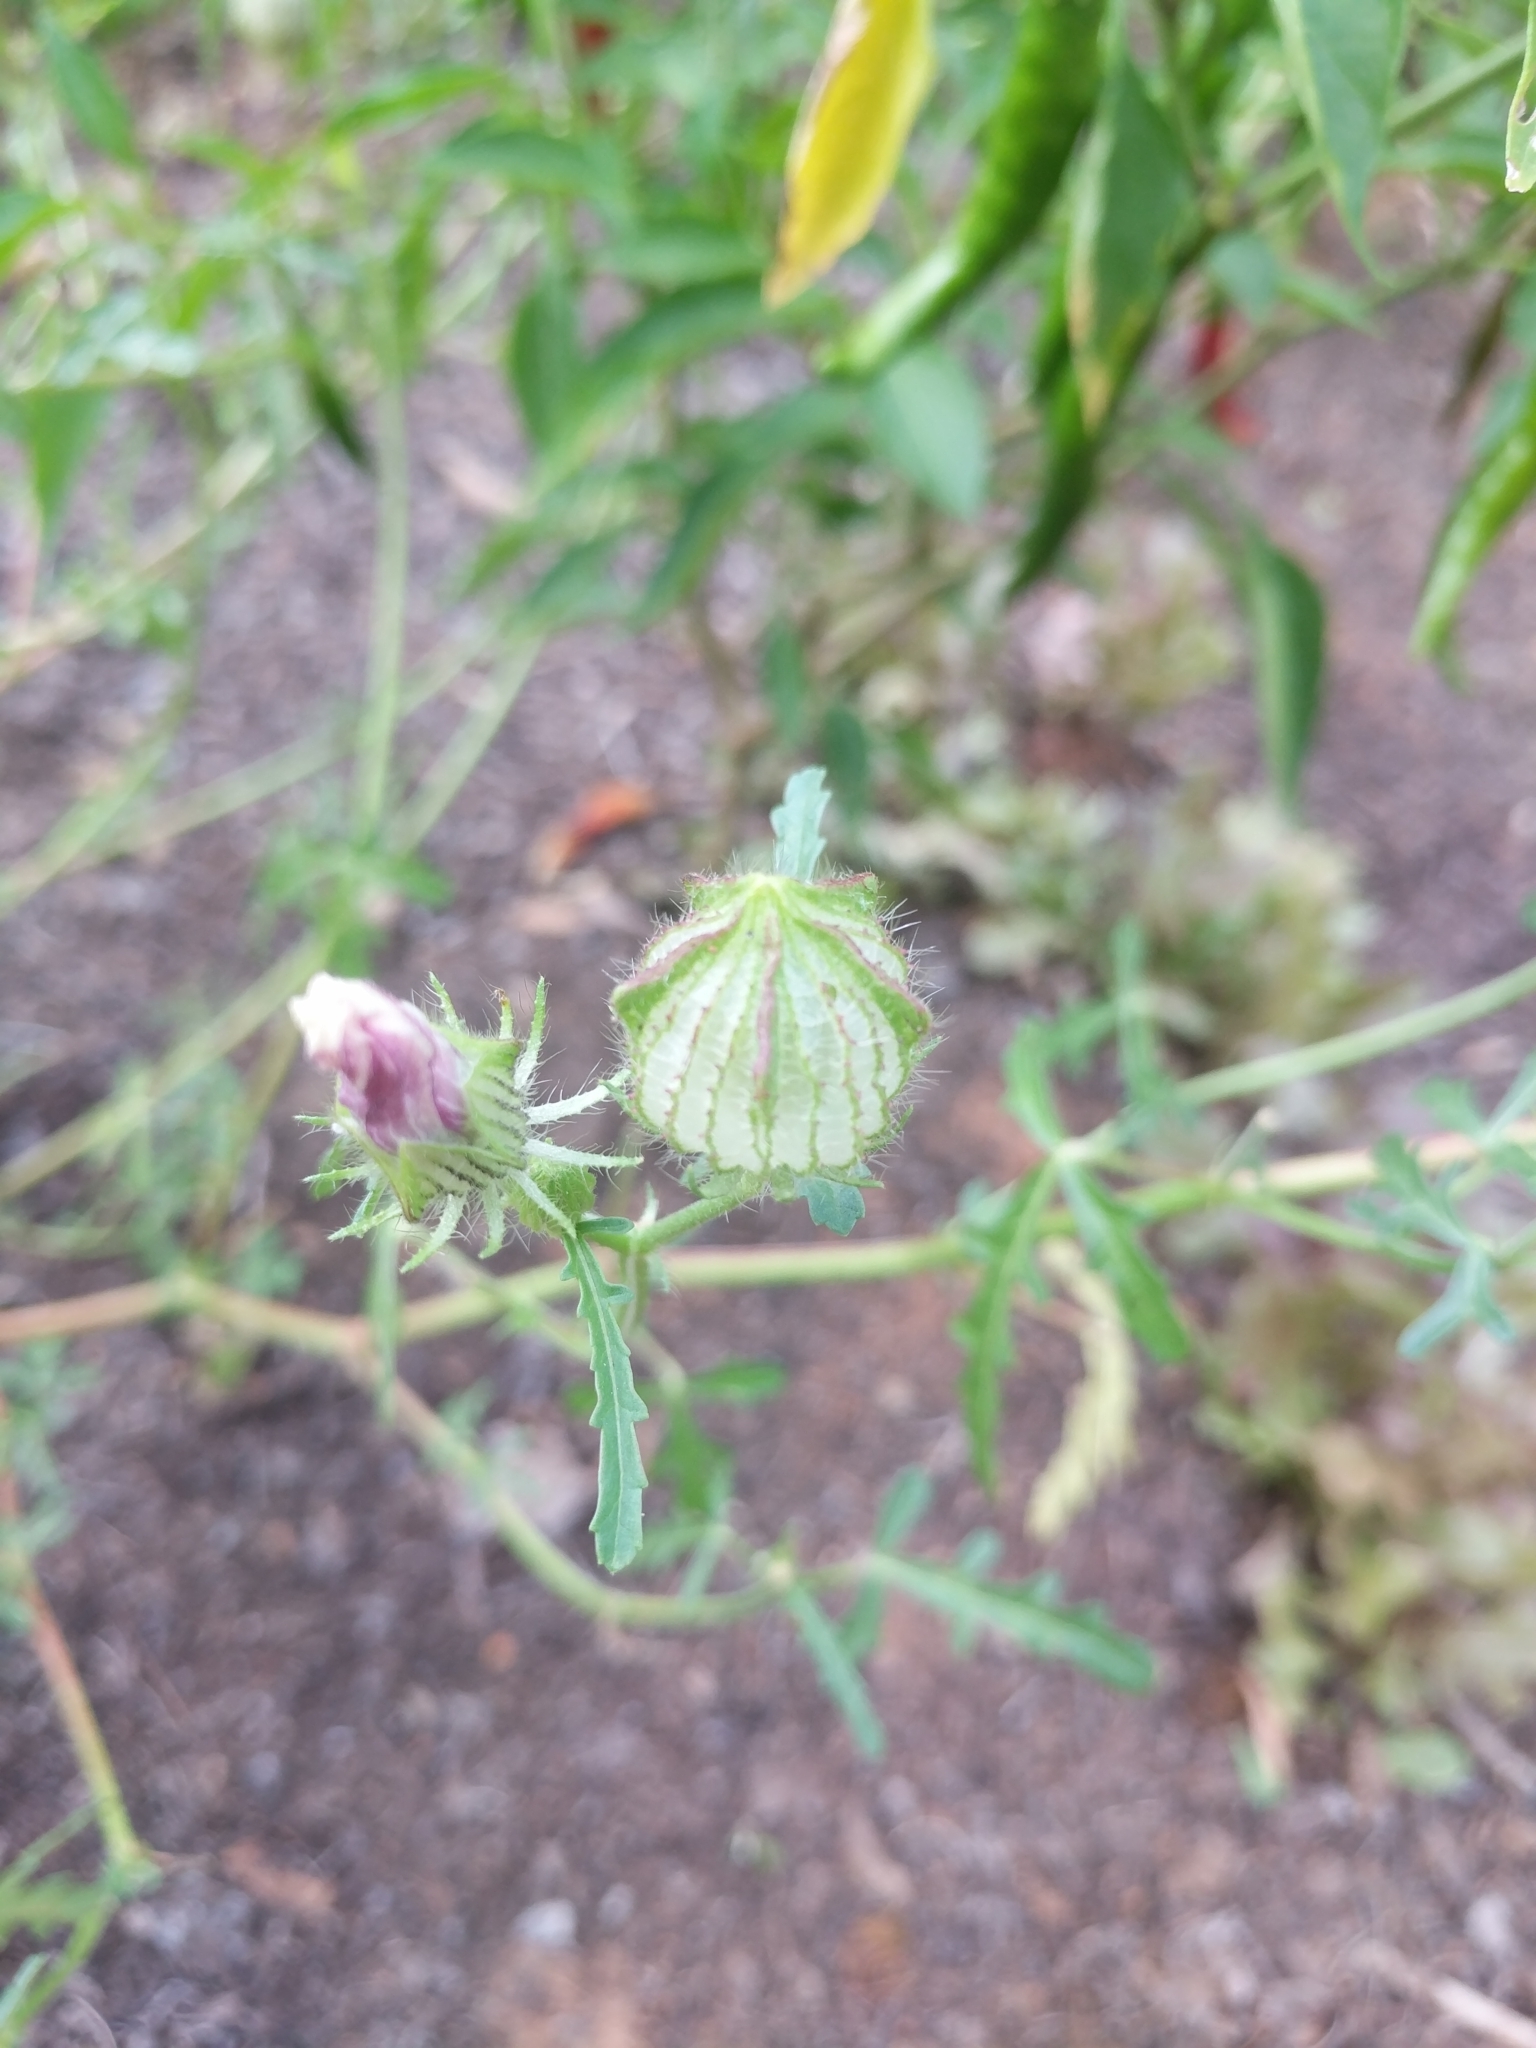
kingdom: Plantae
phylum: Tracheophyta
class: Magnoliopsida
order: Malvales
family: Malvaceae
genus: Hibiscus
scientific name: Hibiscus trionum
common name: Bladder ketmia
